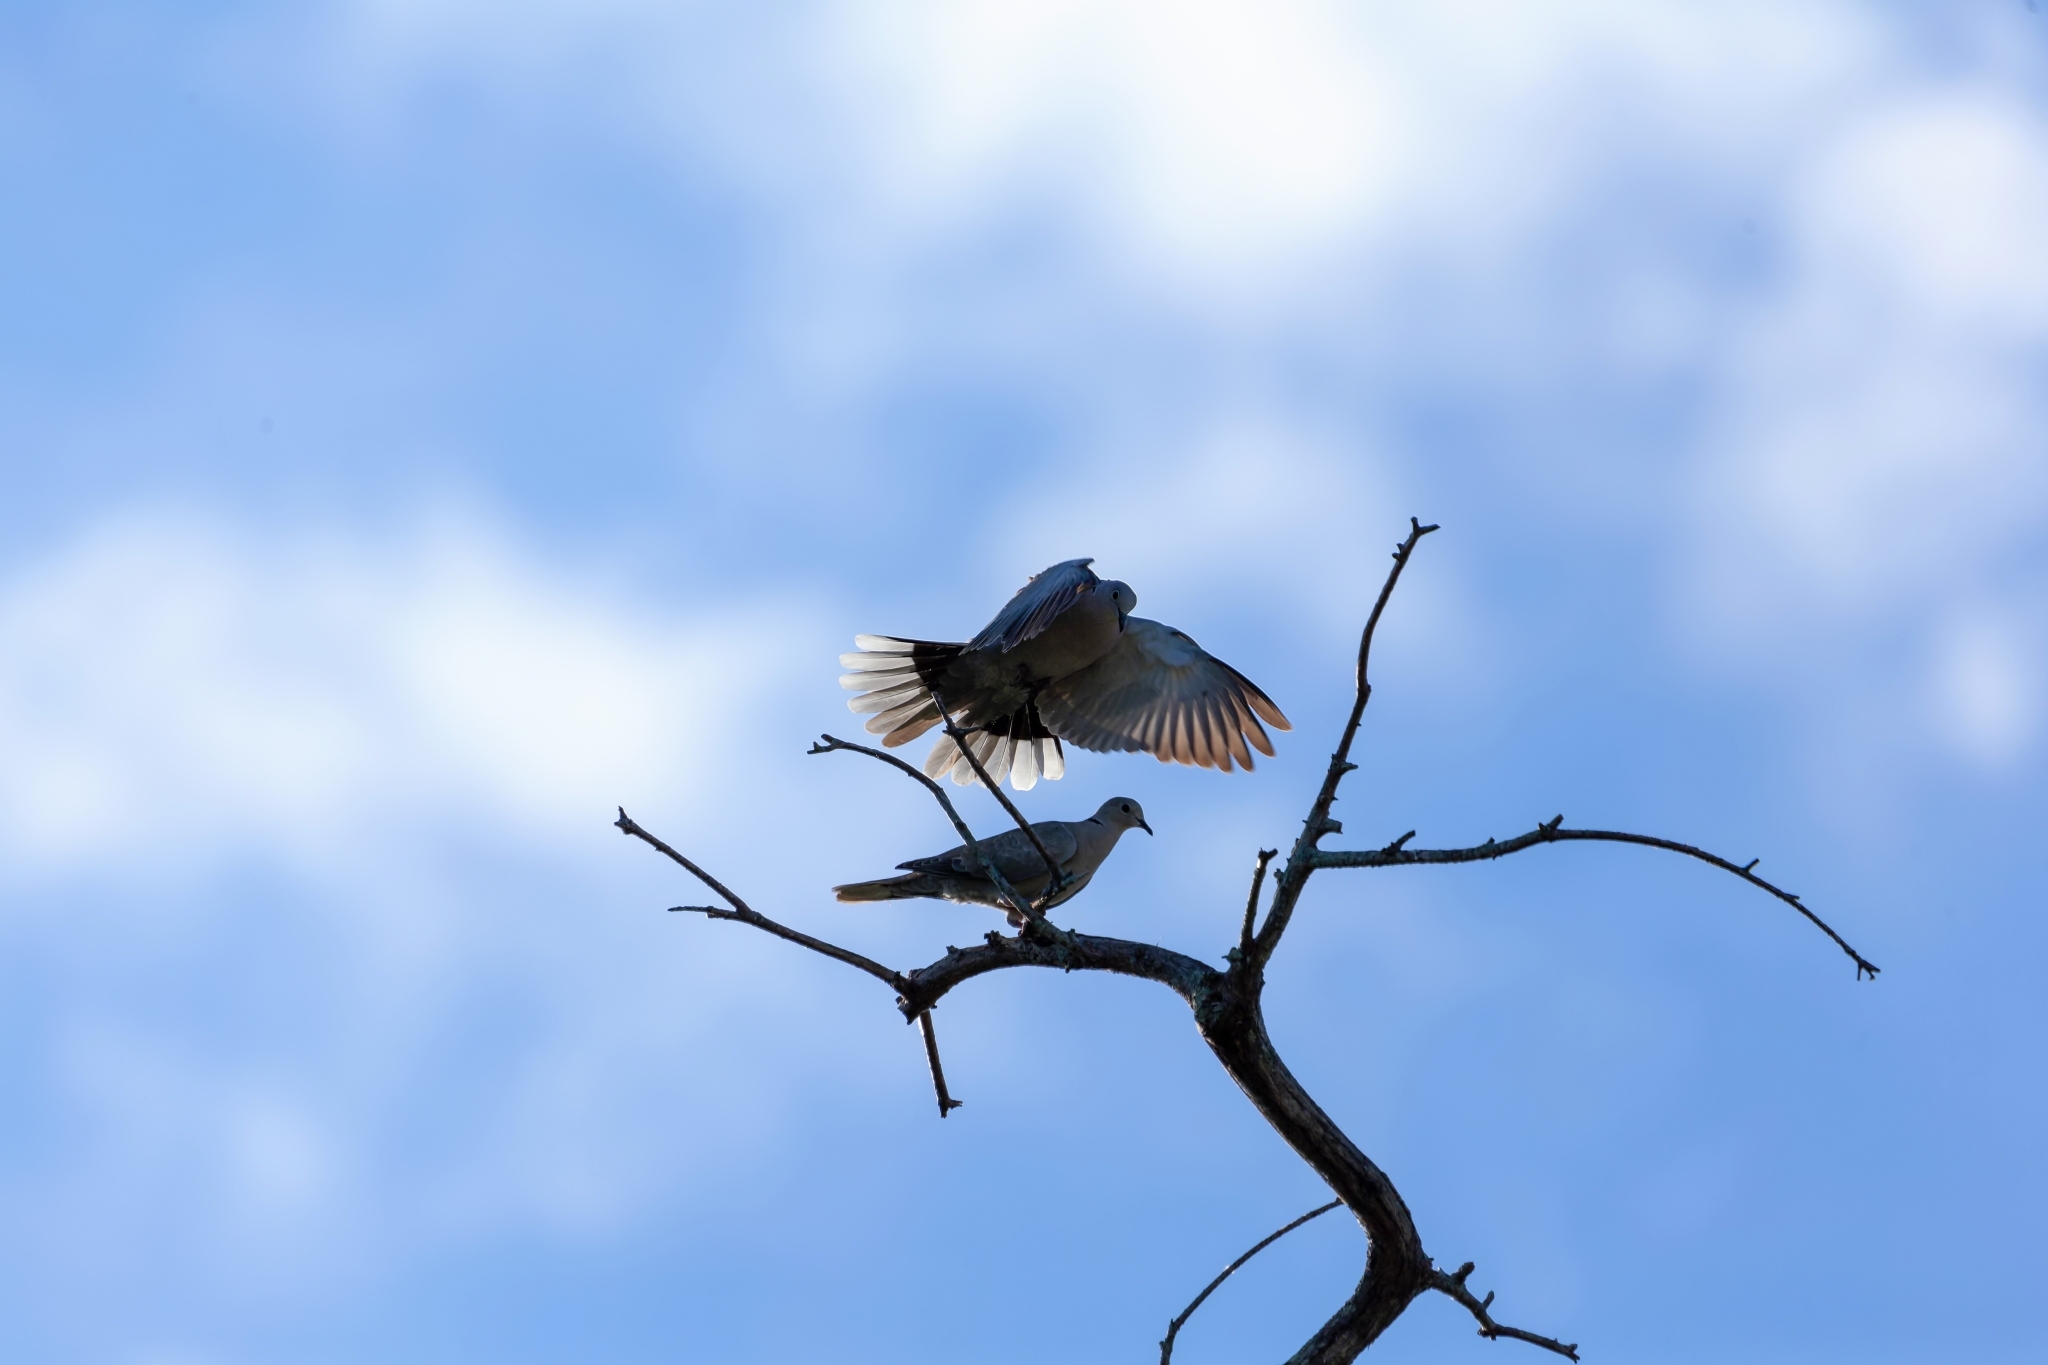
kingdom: Animalia
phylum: Chordata
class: Aves
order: Columbiformes
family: Columbidae
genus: Streptopelia
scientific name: Streptopelia decaocto
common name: Eurasian collared dove
